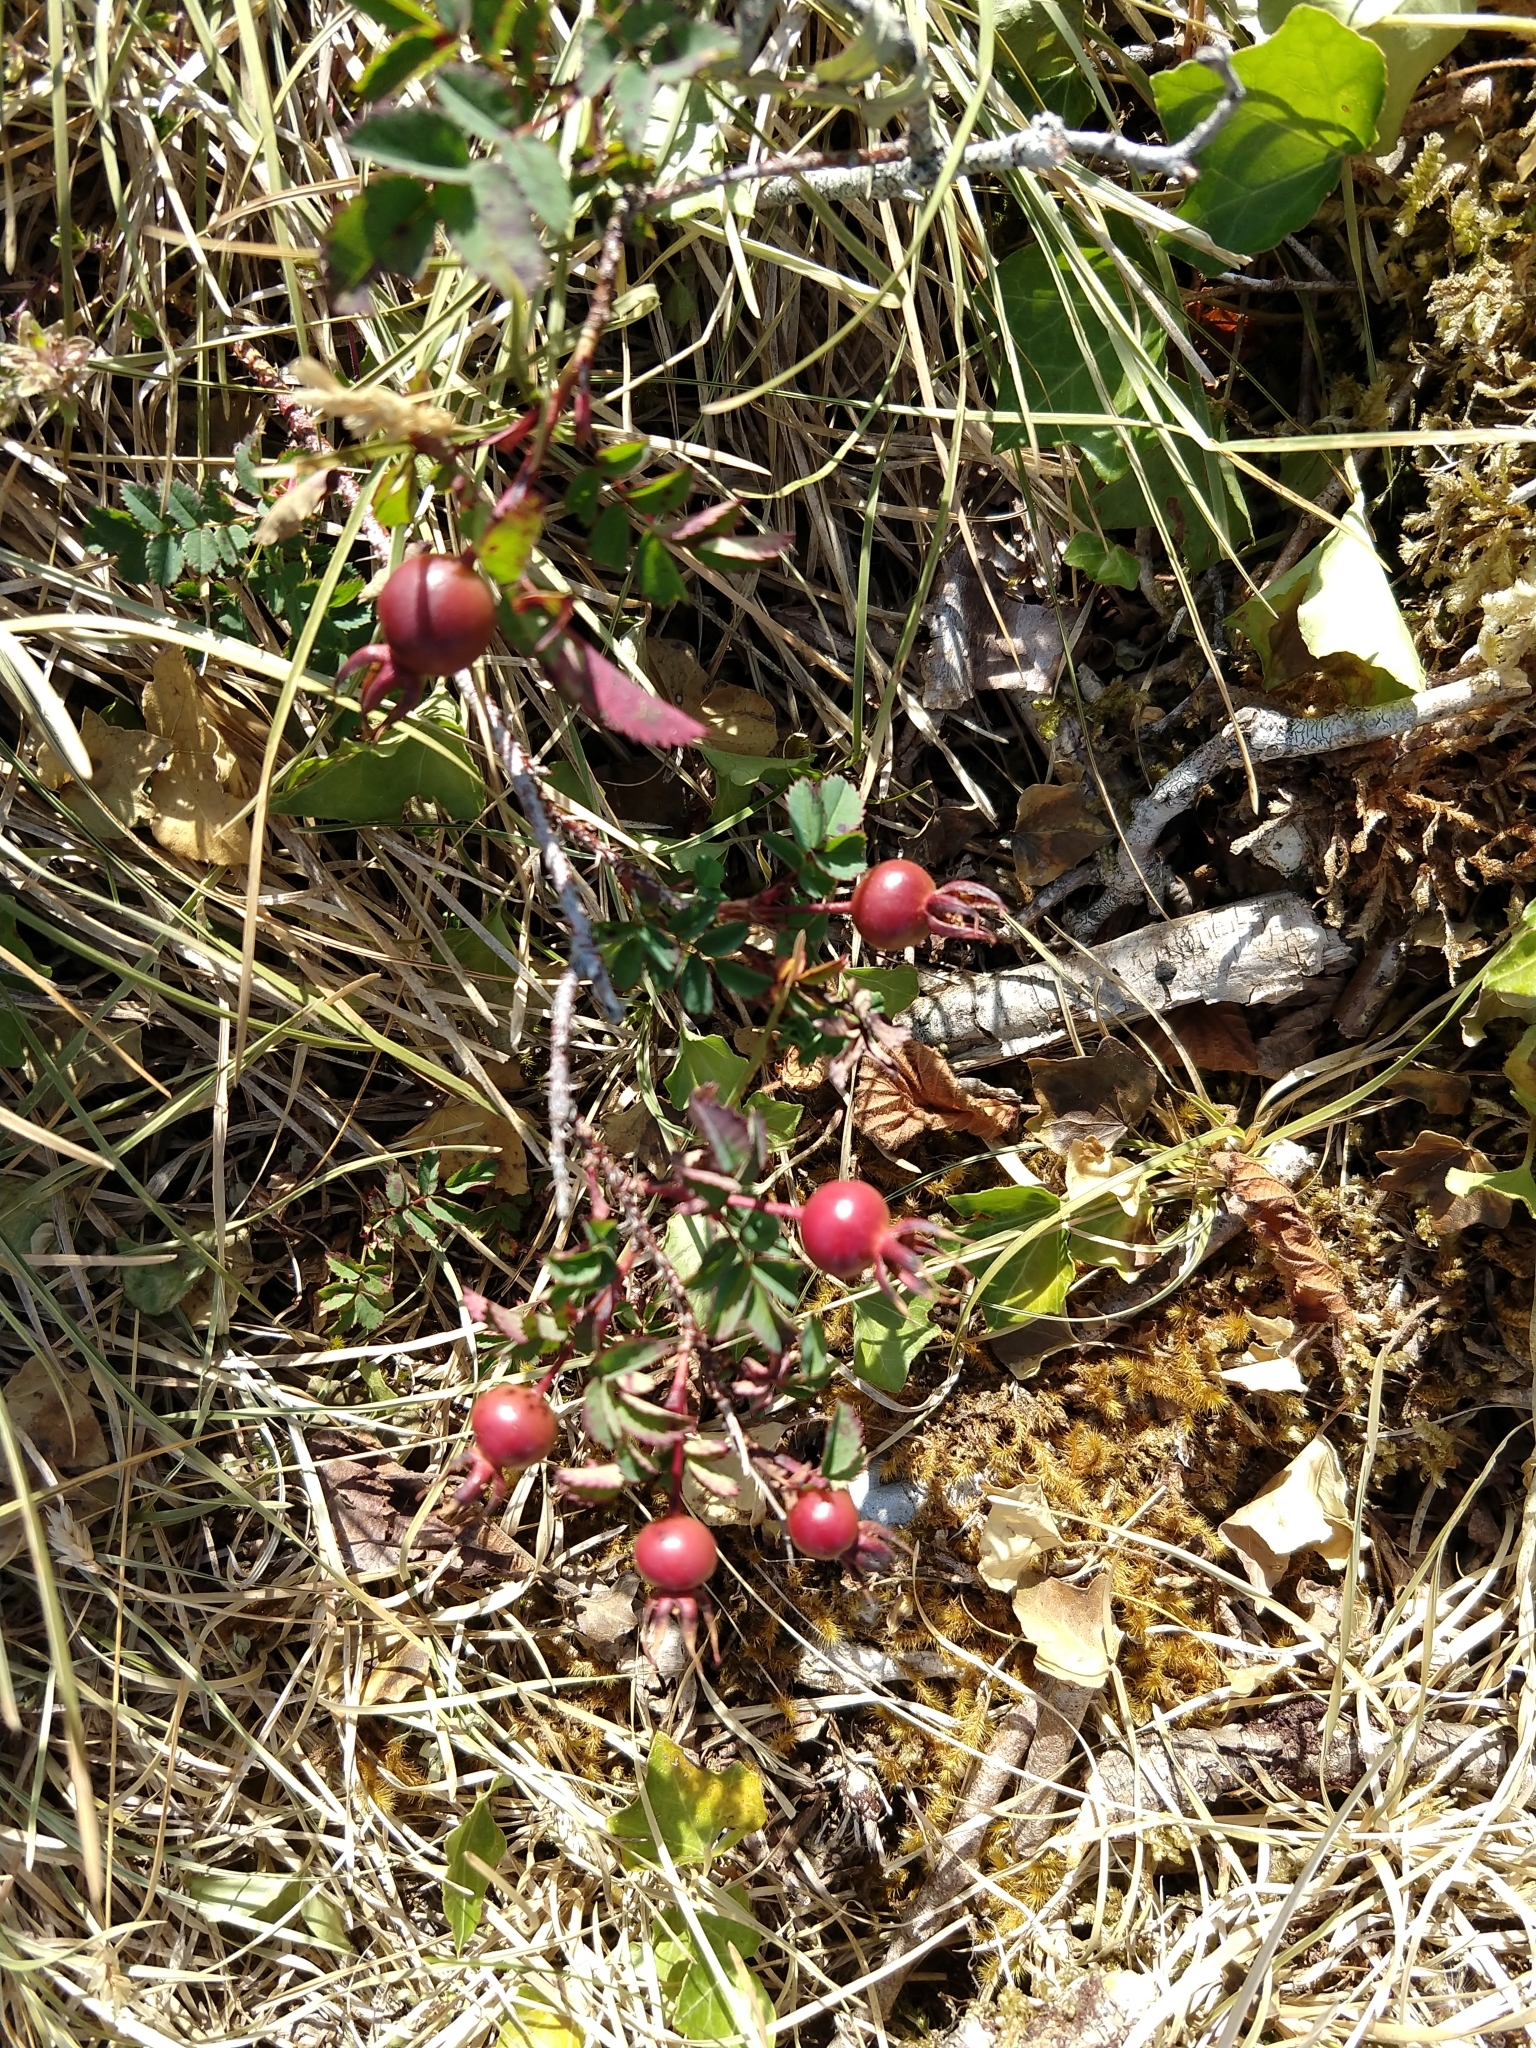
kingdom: Plantae
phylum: Tracheophyta
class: Magnoliopsida
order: Rosales
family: Rosaceae
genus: Rosa
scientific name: Rosa spinosissima
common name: Burnet rose
